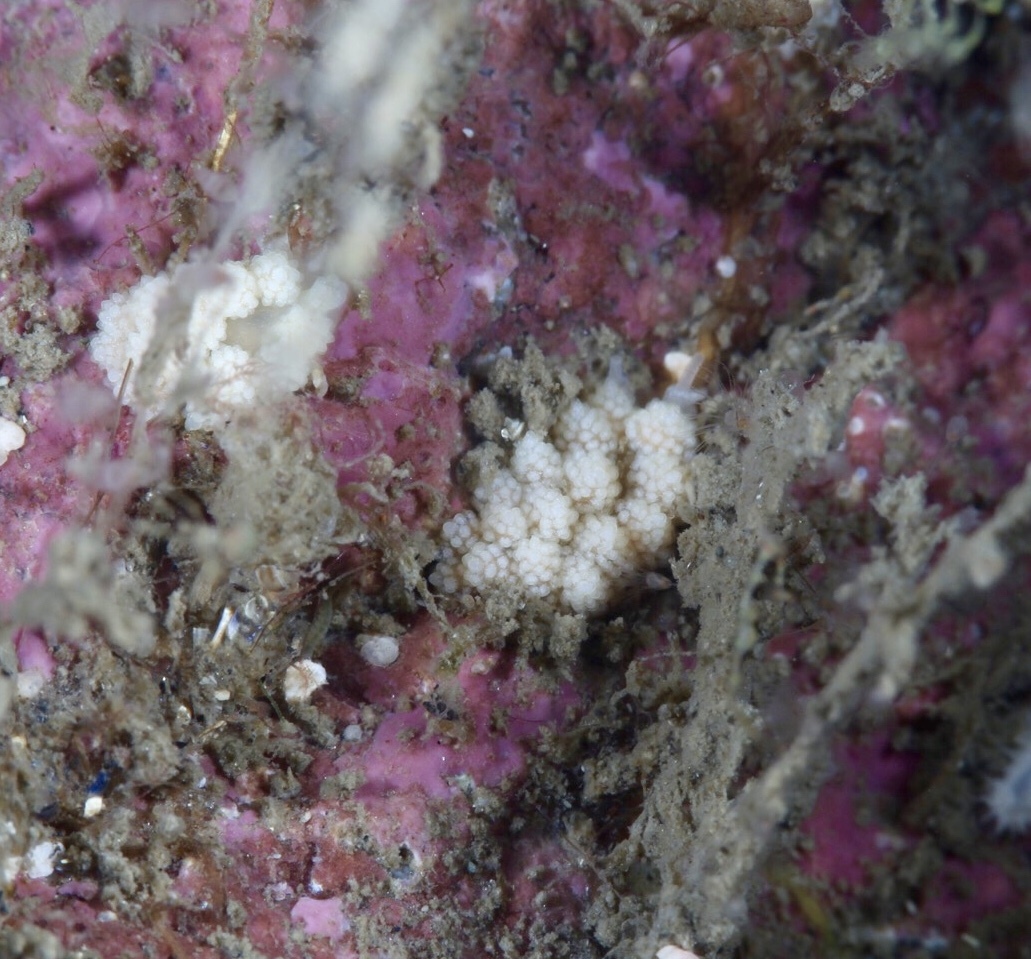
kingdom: Animalia
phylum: Mollusca
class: Gastropoda
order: Nudibranchia
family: Dotidae
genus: Doto
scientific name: Doto fragilis
